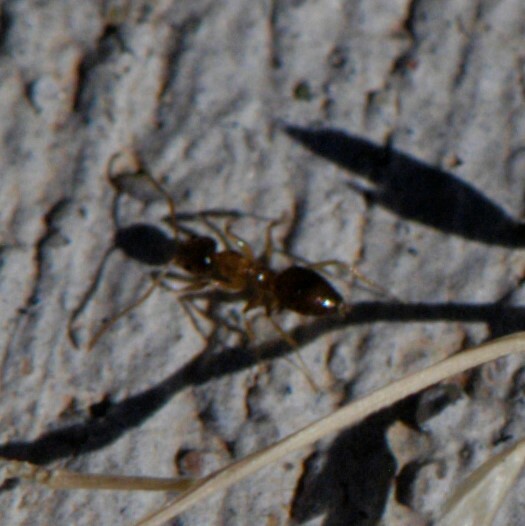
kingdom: Animalia
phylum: Arthropoda
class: Insecta
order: Hymenoptera
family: Formicidae
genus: Nylanderia
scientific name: Nylanderia
